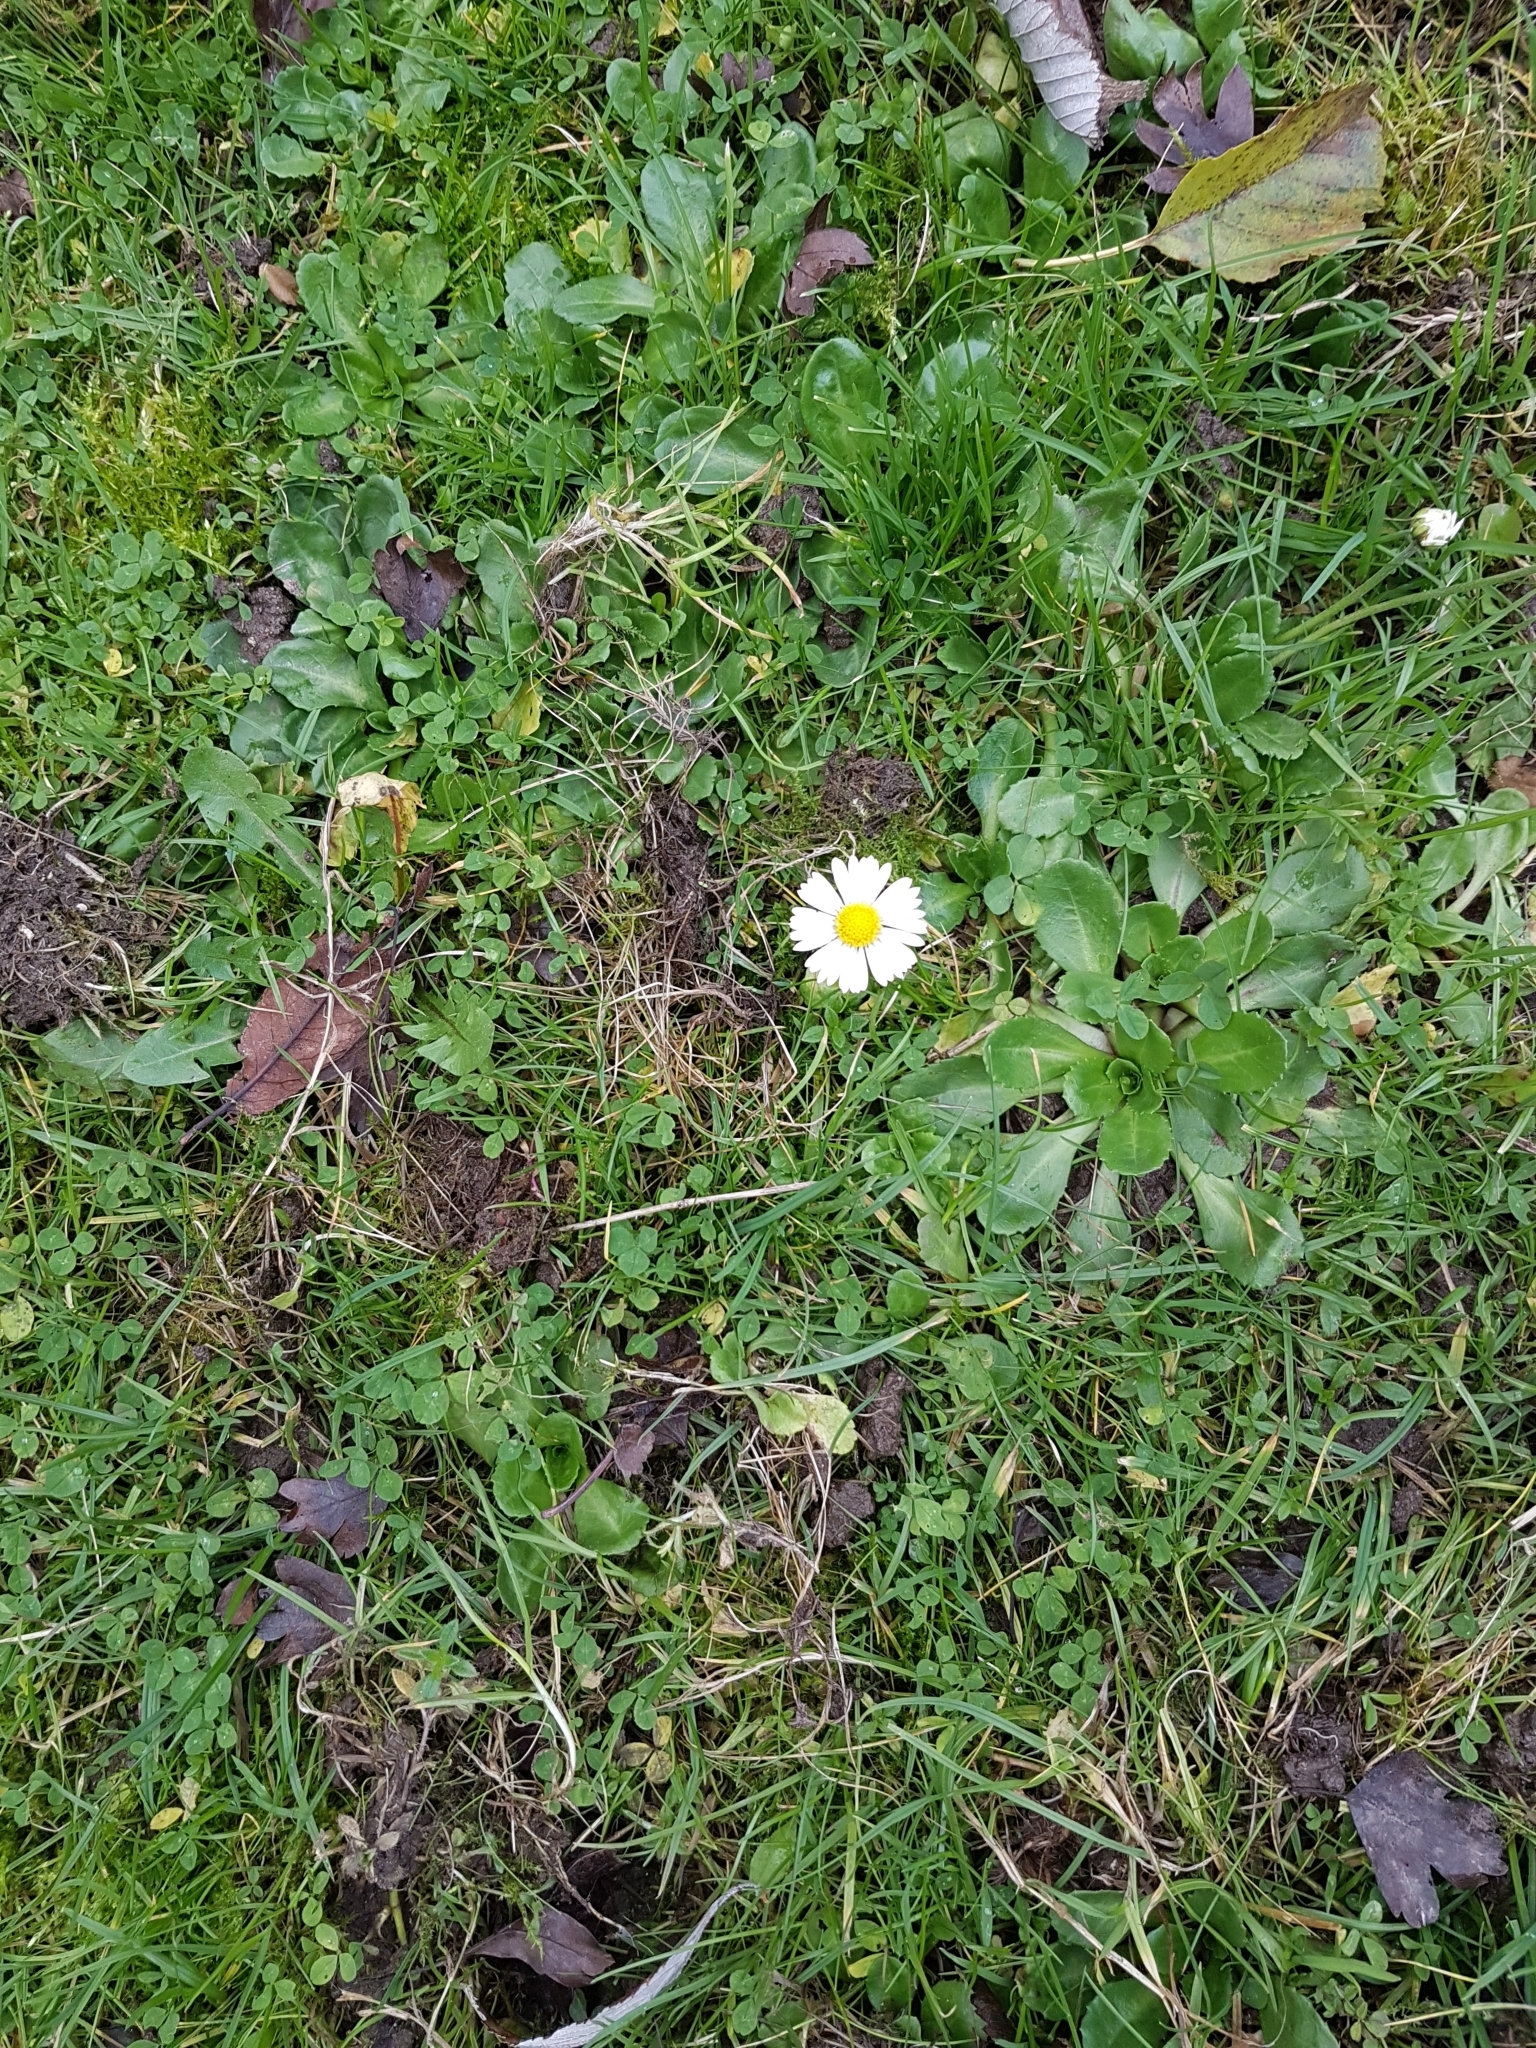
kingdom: Plantae
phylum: Tracheophyta
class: Magnoliopsida
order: Asterales
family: Asteraceae
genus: Bellis
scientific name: Bellis perennis
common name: Lawndaisy
